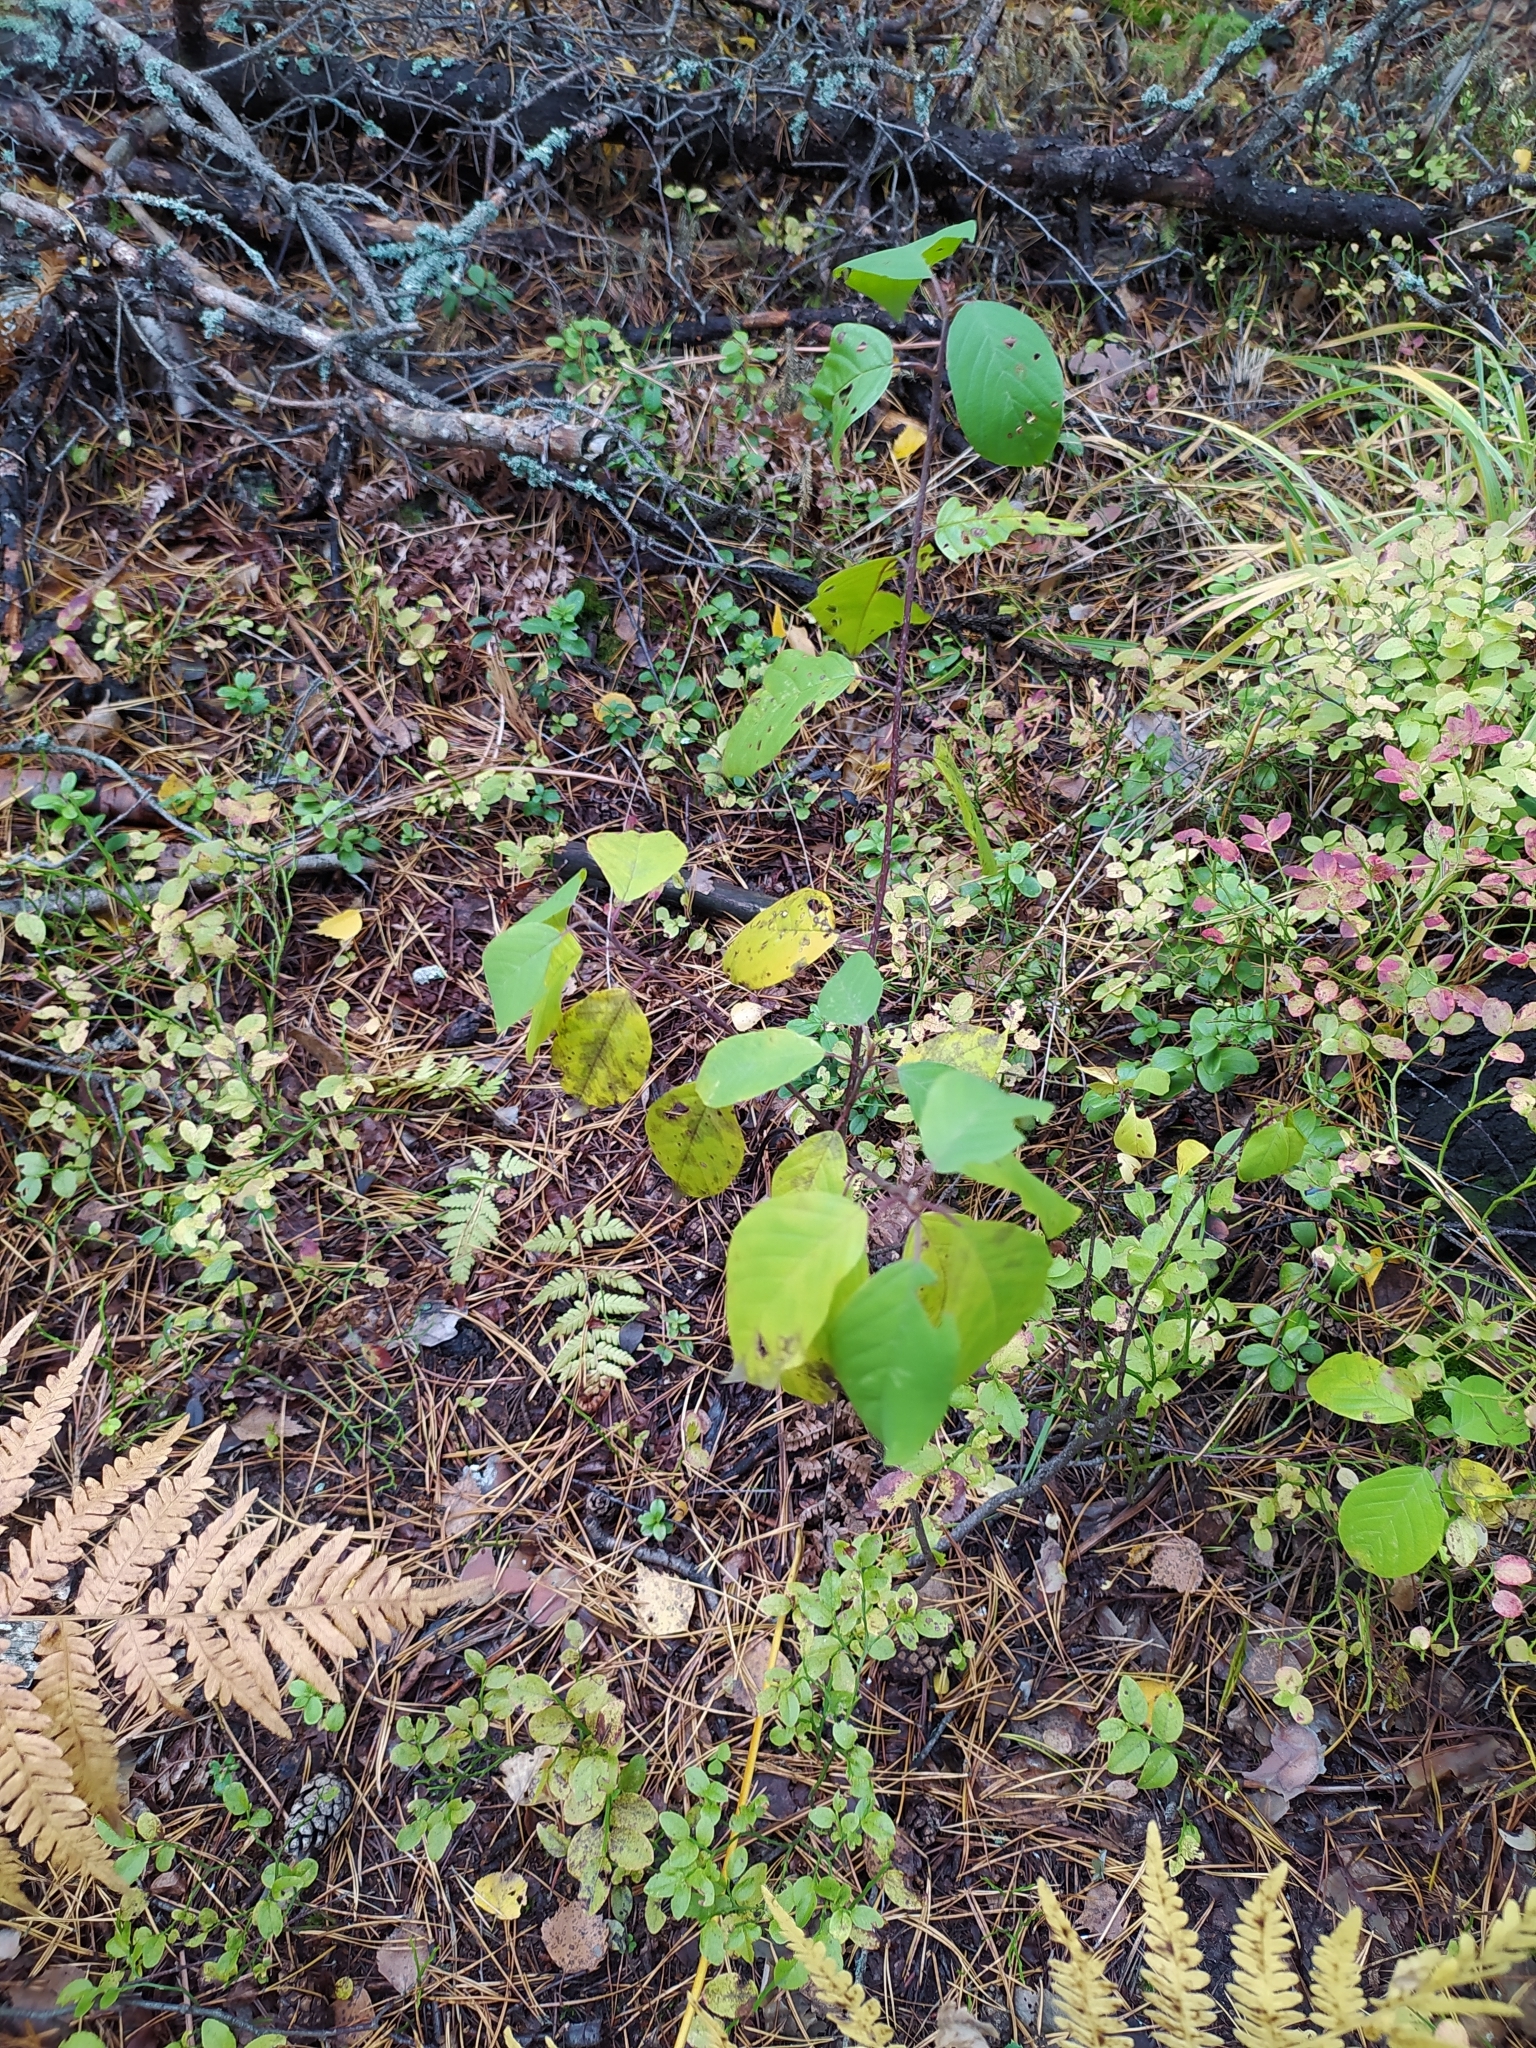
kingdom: Plantae
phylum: Tracheophyta
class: Magnoliopsida
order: Rosales
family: Rhamnaceae
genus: Frangula
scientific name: Frangula alnus
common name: Alder buckthorn
